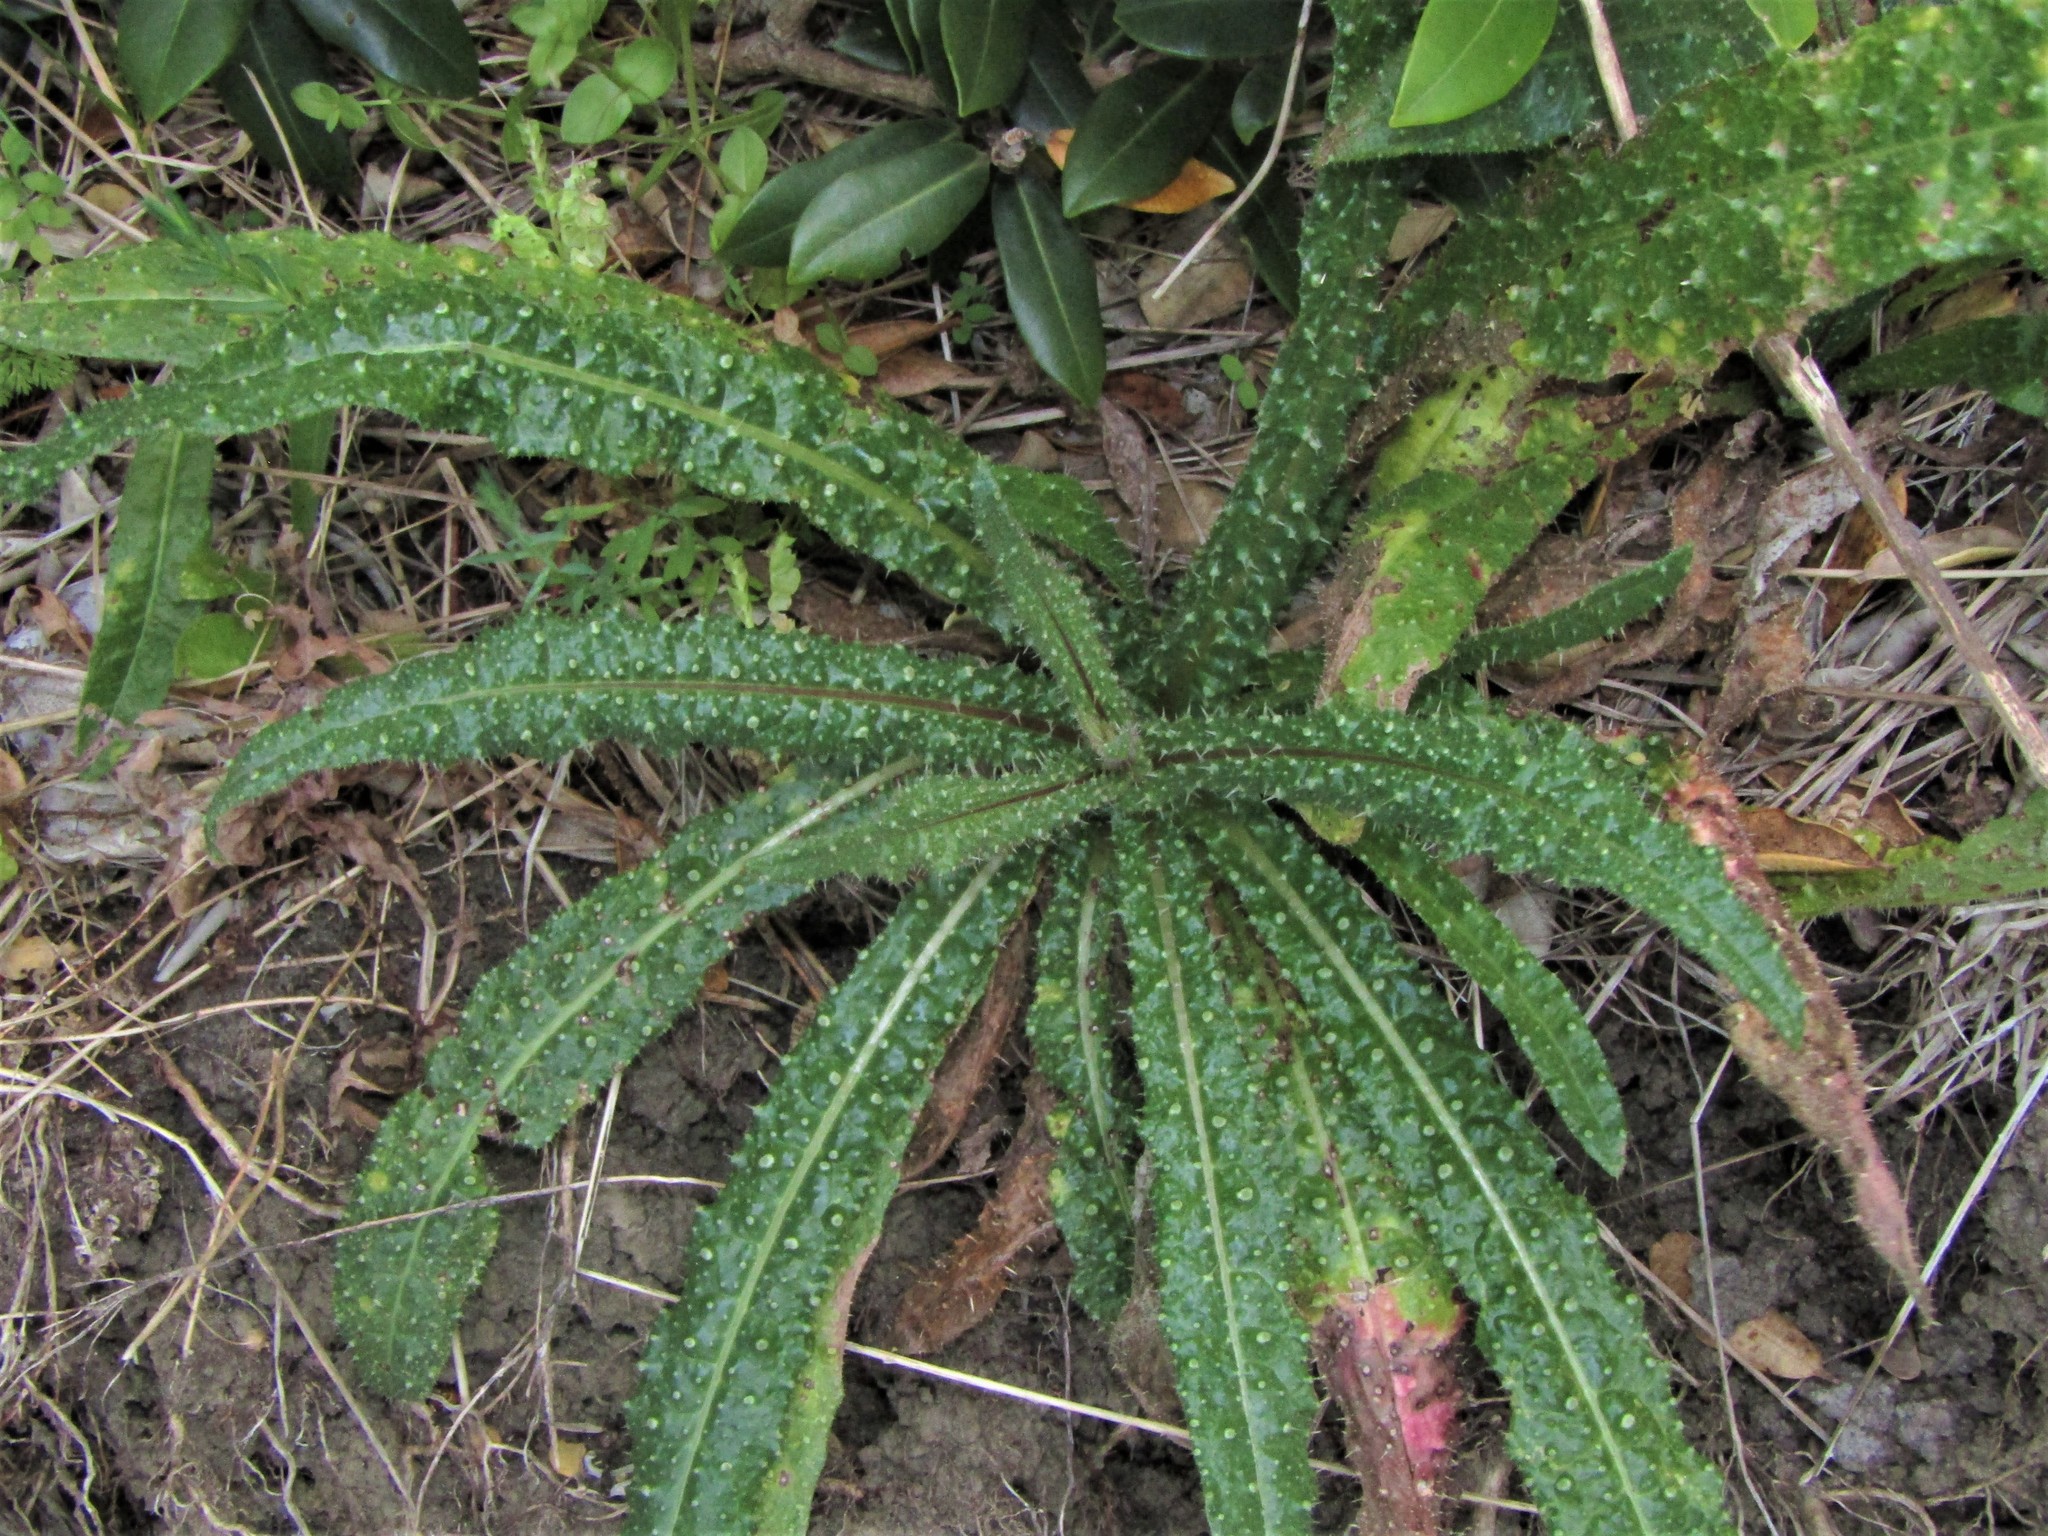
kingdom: Plantae
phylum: Tracheophyta
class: Magnoliopsida
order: Asterales
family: Asteraceae
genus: Helminthotheca
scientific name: Helminthotheca echioides
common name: Ox-tongue
